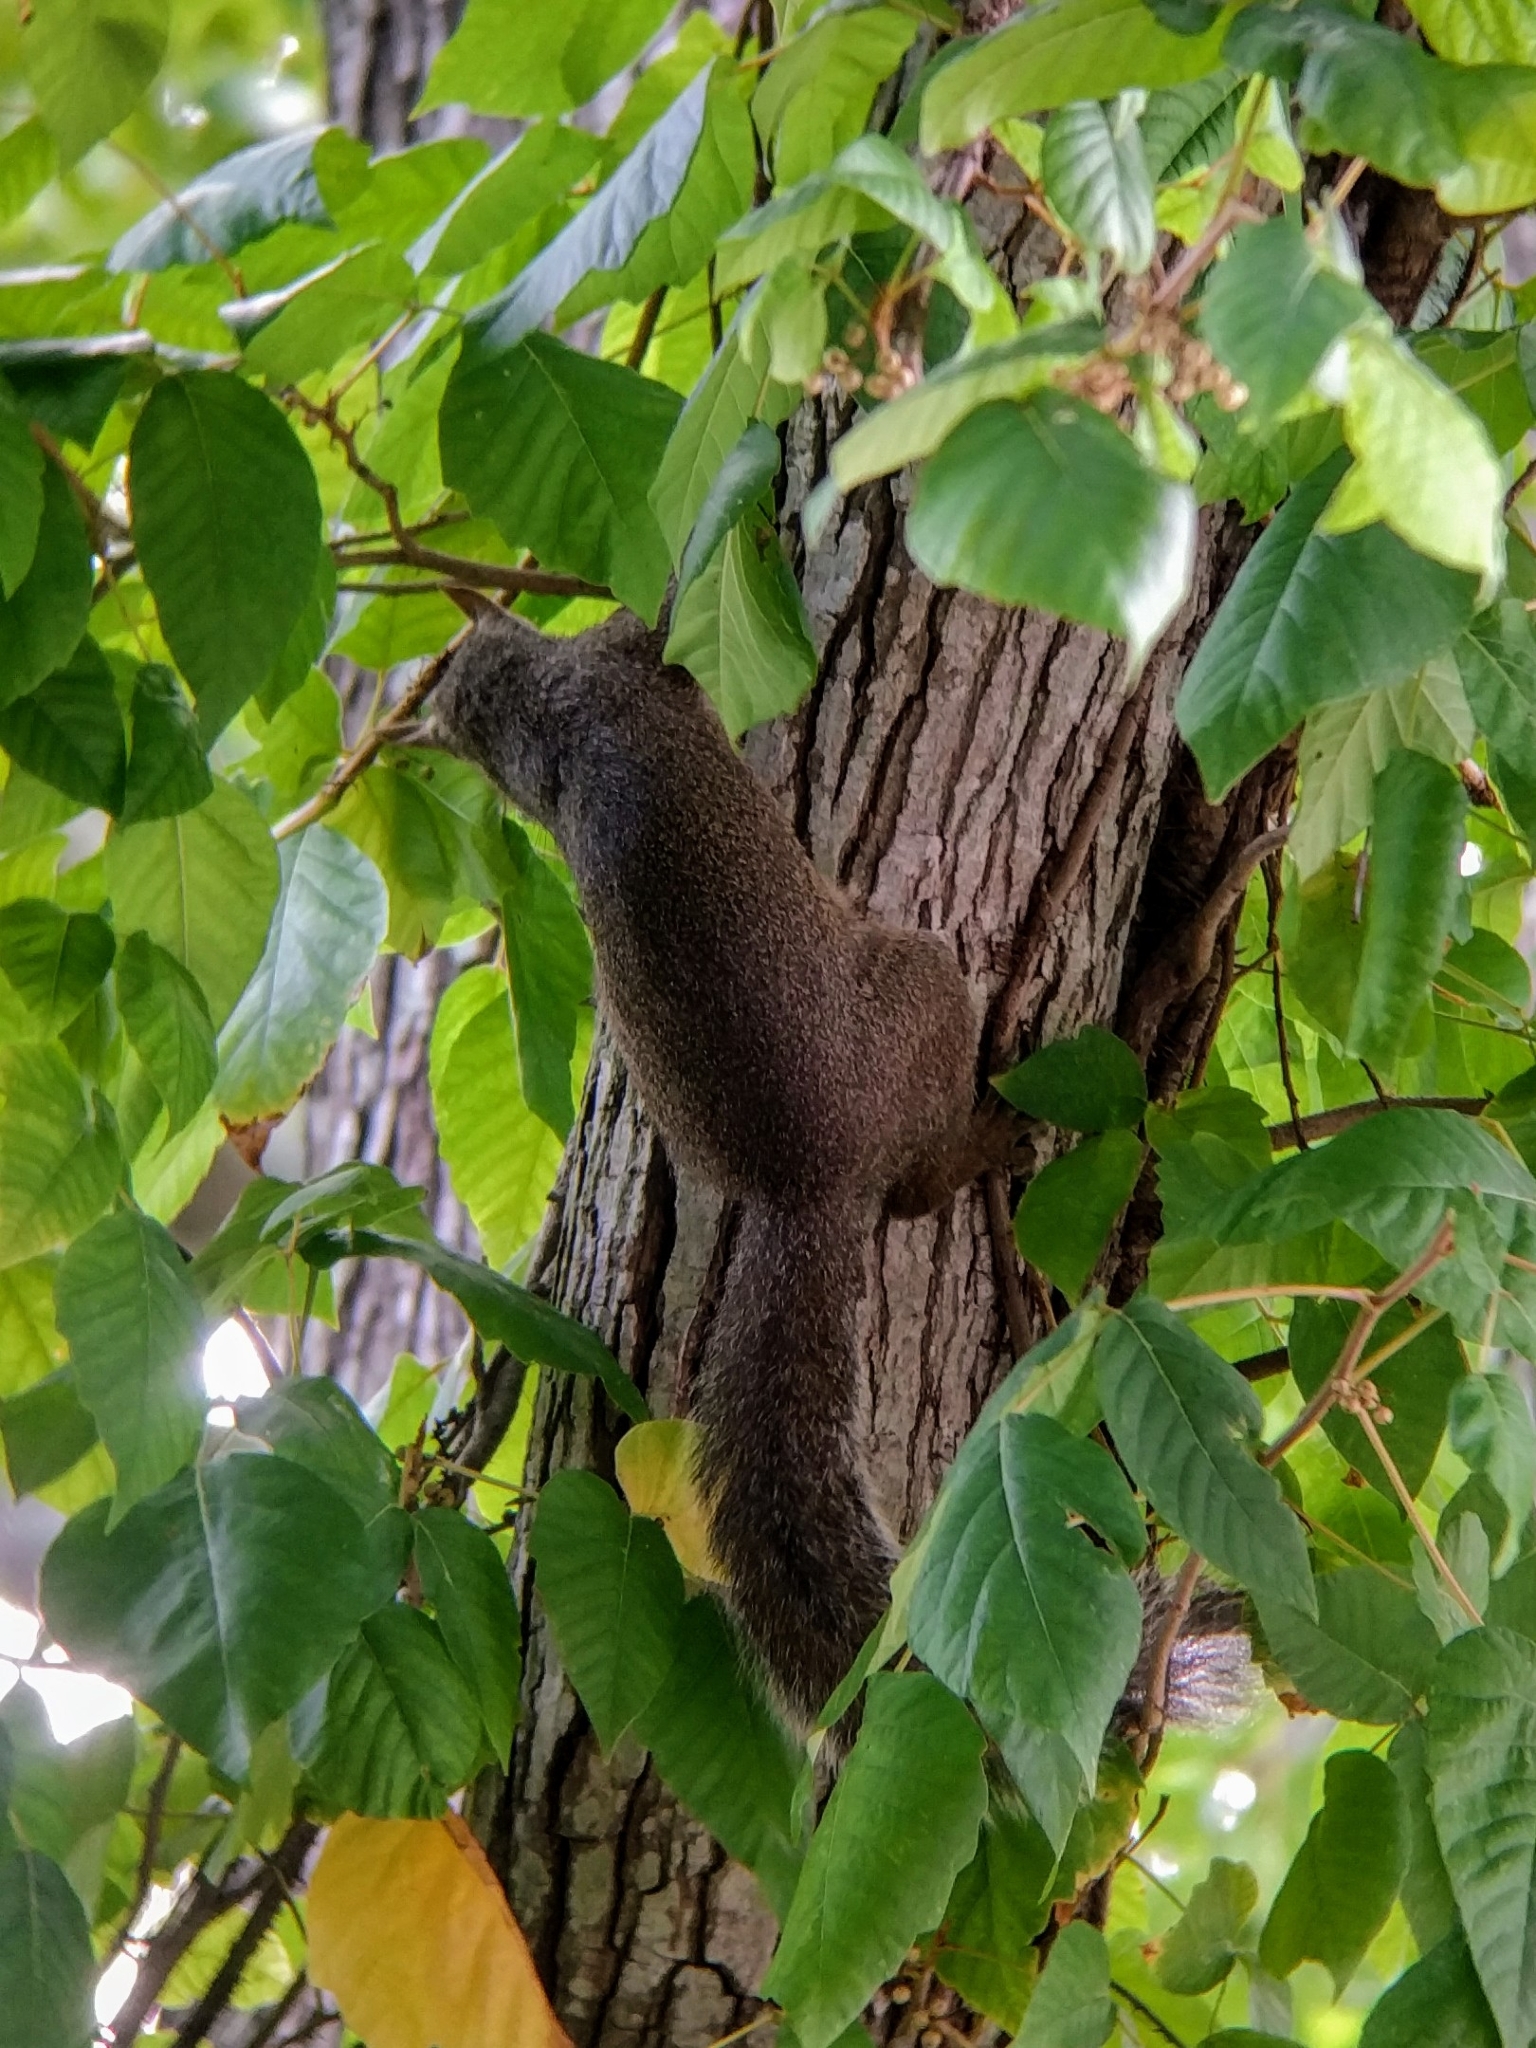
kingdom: Animalia
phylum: Chordata
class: Mammalia
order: Rodentia
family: Sciuridae
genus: Sciurus
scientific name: Sciurus carolinensis
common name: Eastern gray squirrel
